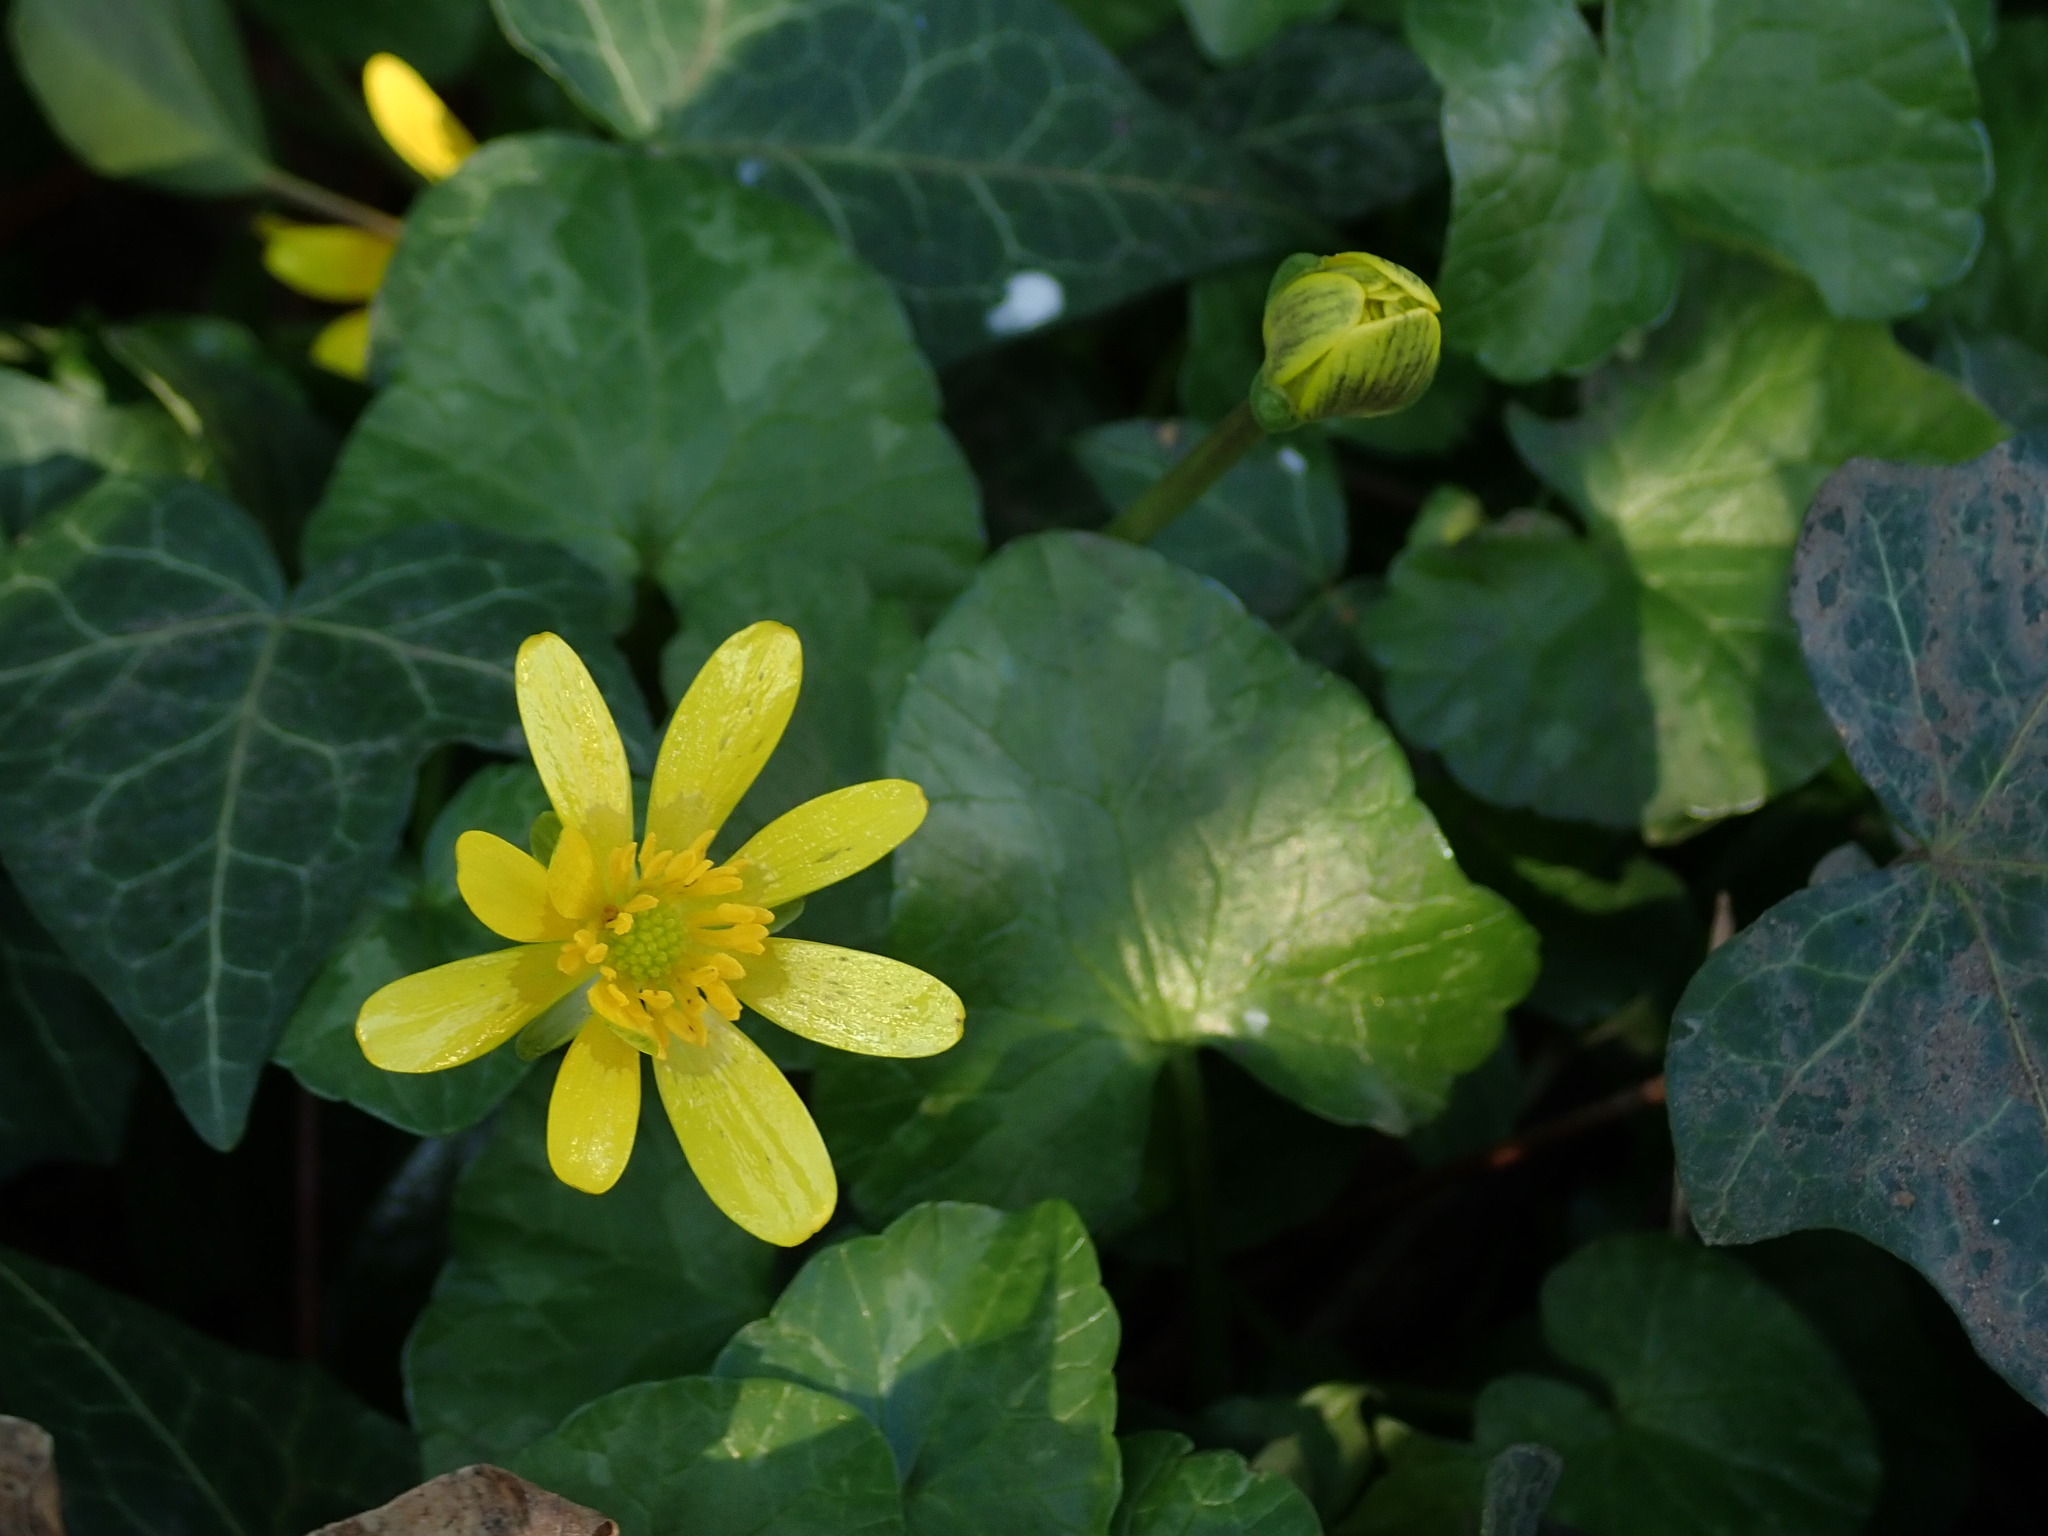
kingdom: Plantae
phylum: Tracheophyta
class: Magnoliopsida
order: Ranunculales
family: Ranunculaceae
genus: Ficaria
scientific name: Ficaria verna
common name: Lesser celandine
